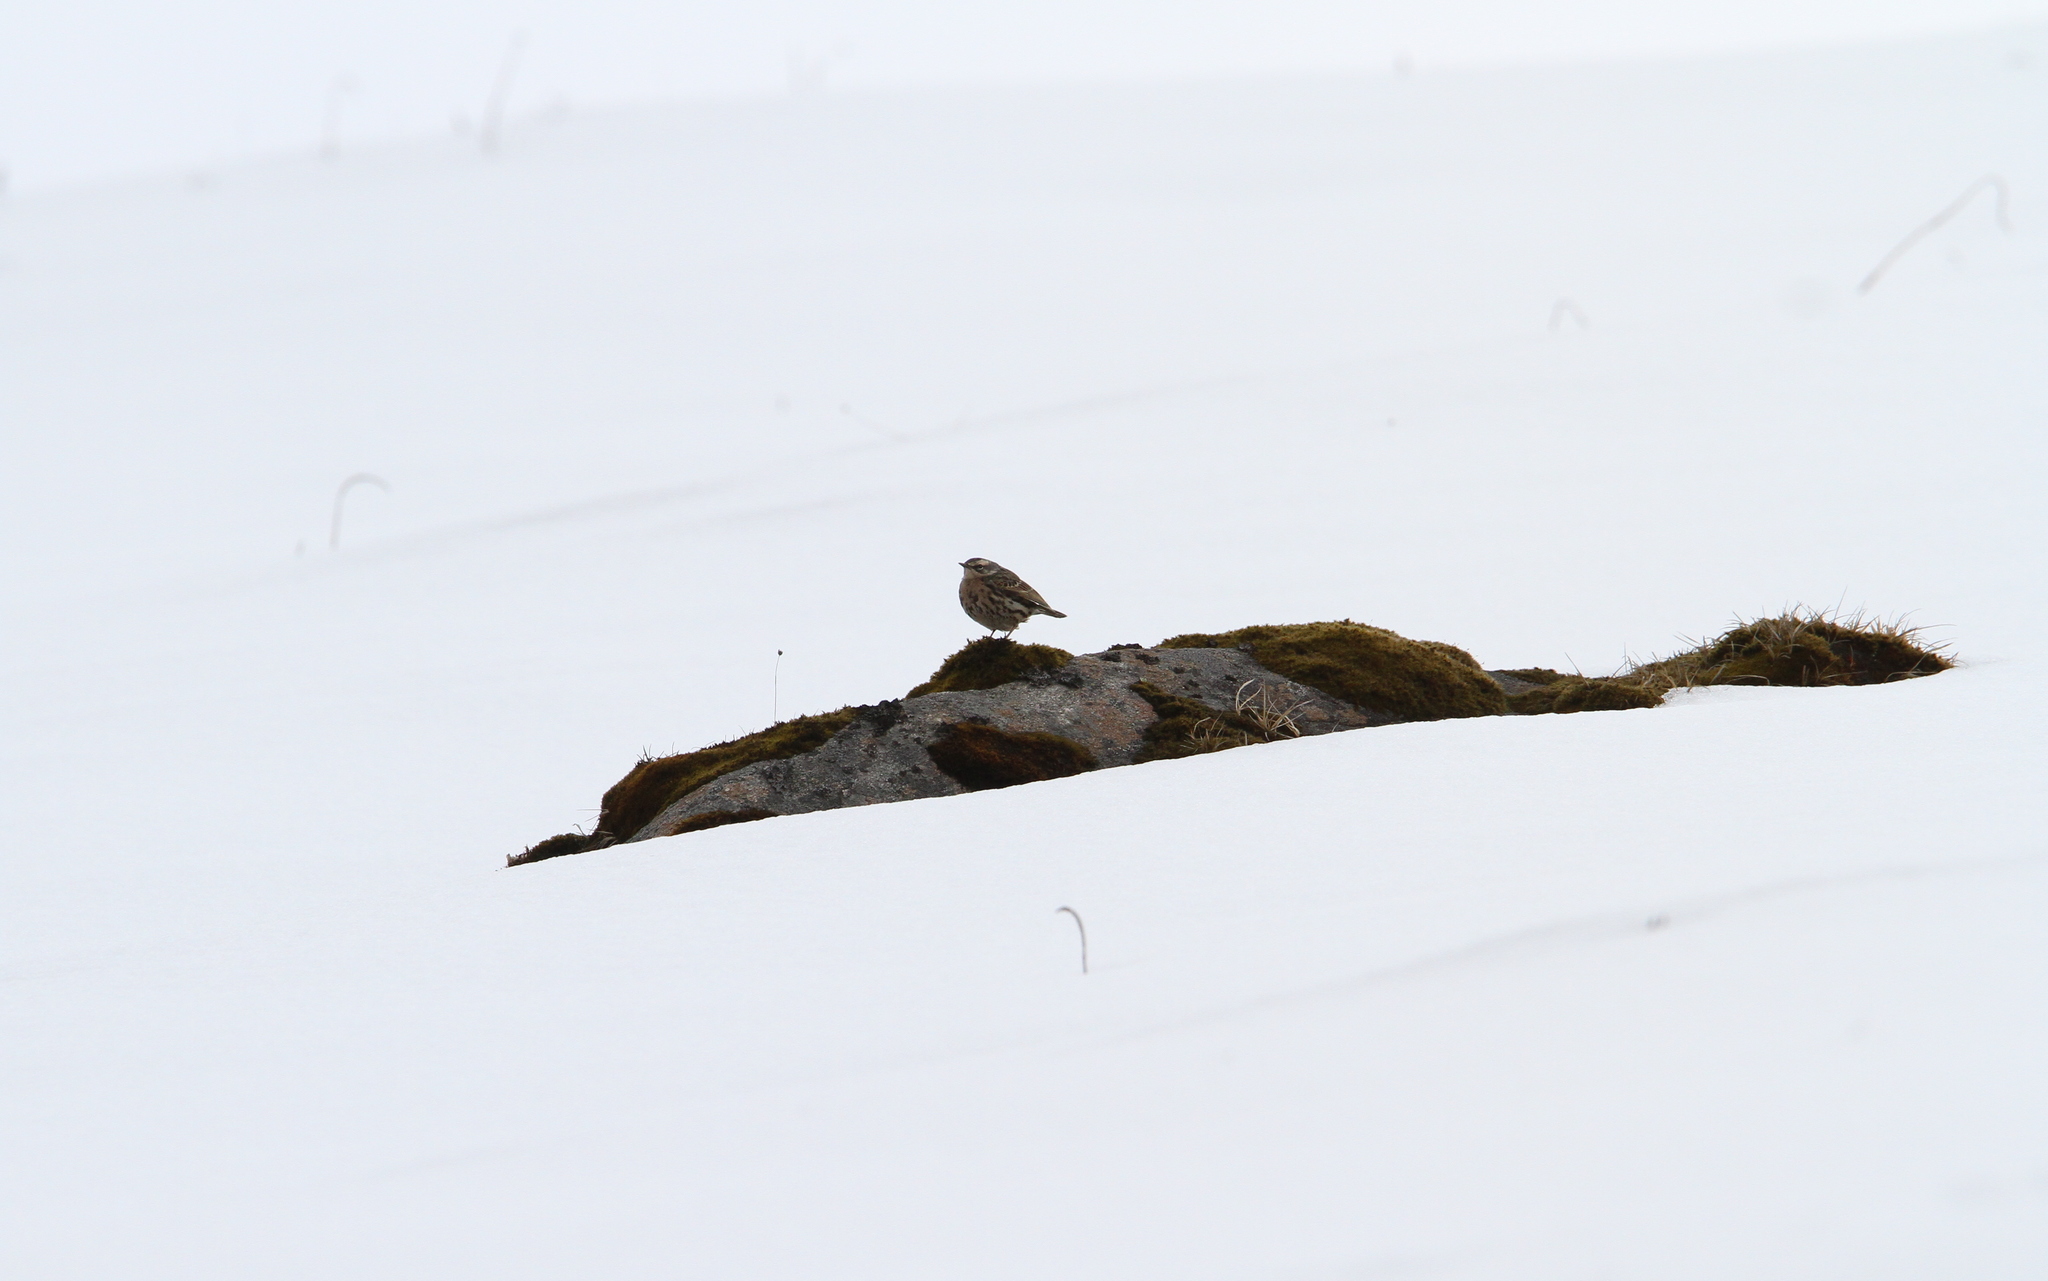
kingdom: Animalia
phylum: Chordata
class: Aves
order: Passeriformes
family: Motacillidae
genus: Anthus
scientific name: Anthus roseatus
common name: Rosy pipit
